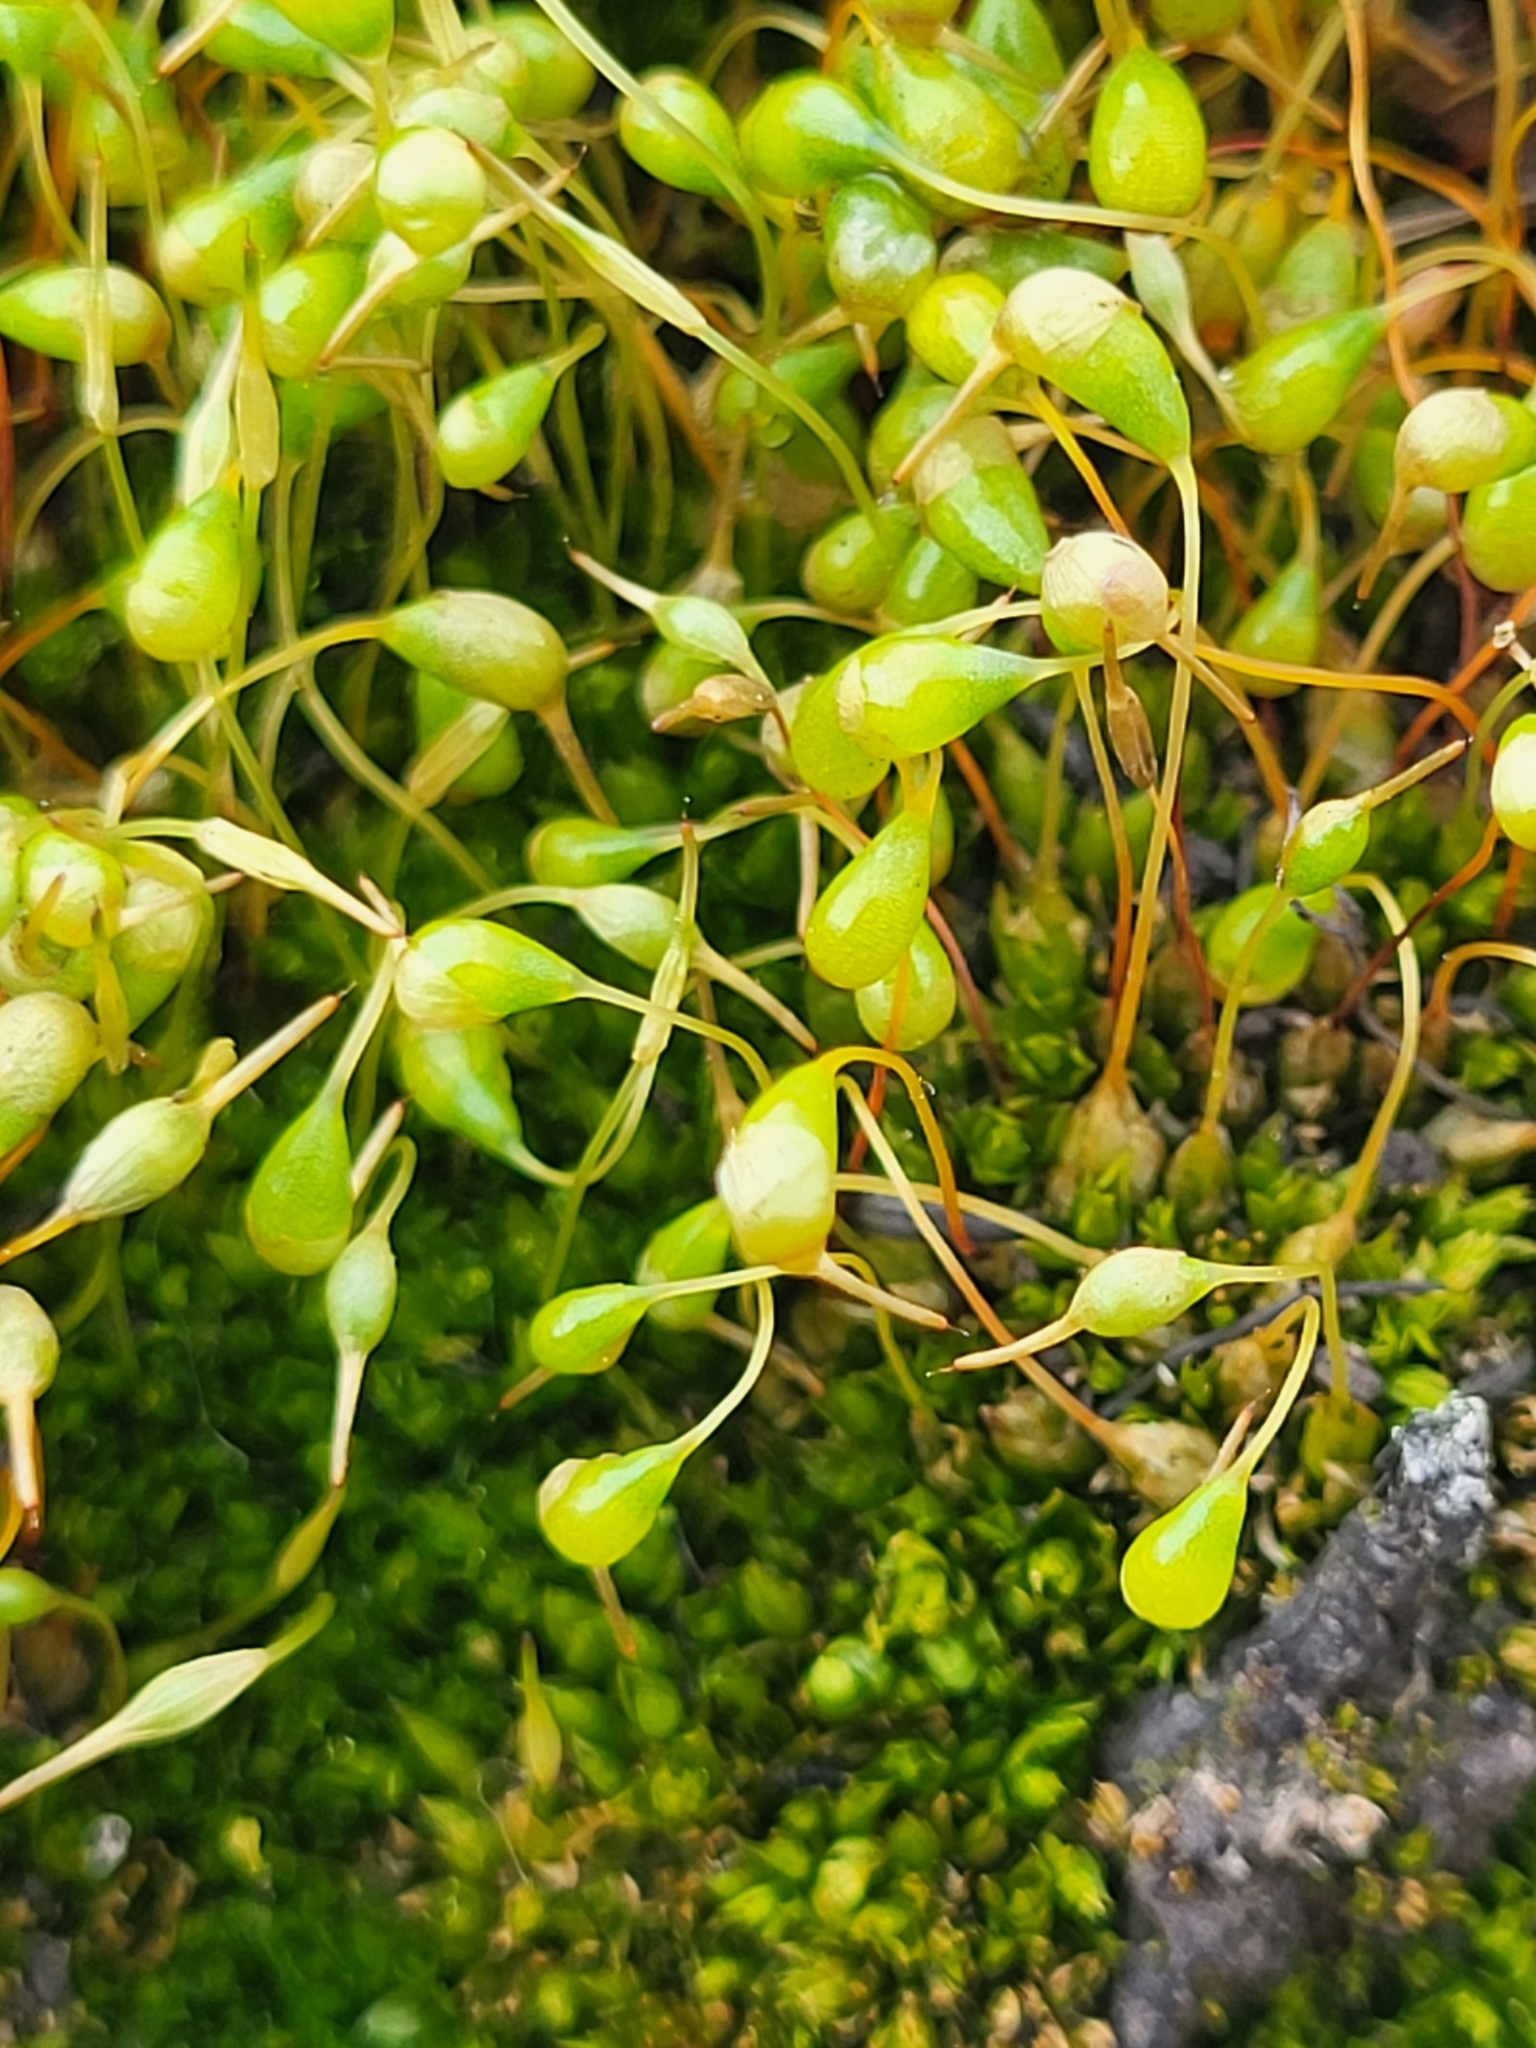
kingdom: Plantae
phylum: Bryophyta
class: Bryopsida
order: Funariales
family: Funariaceae
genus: Funaria
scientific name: Funaria hygrometrica
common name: Common cord moss
